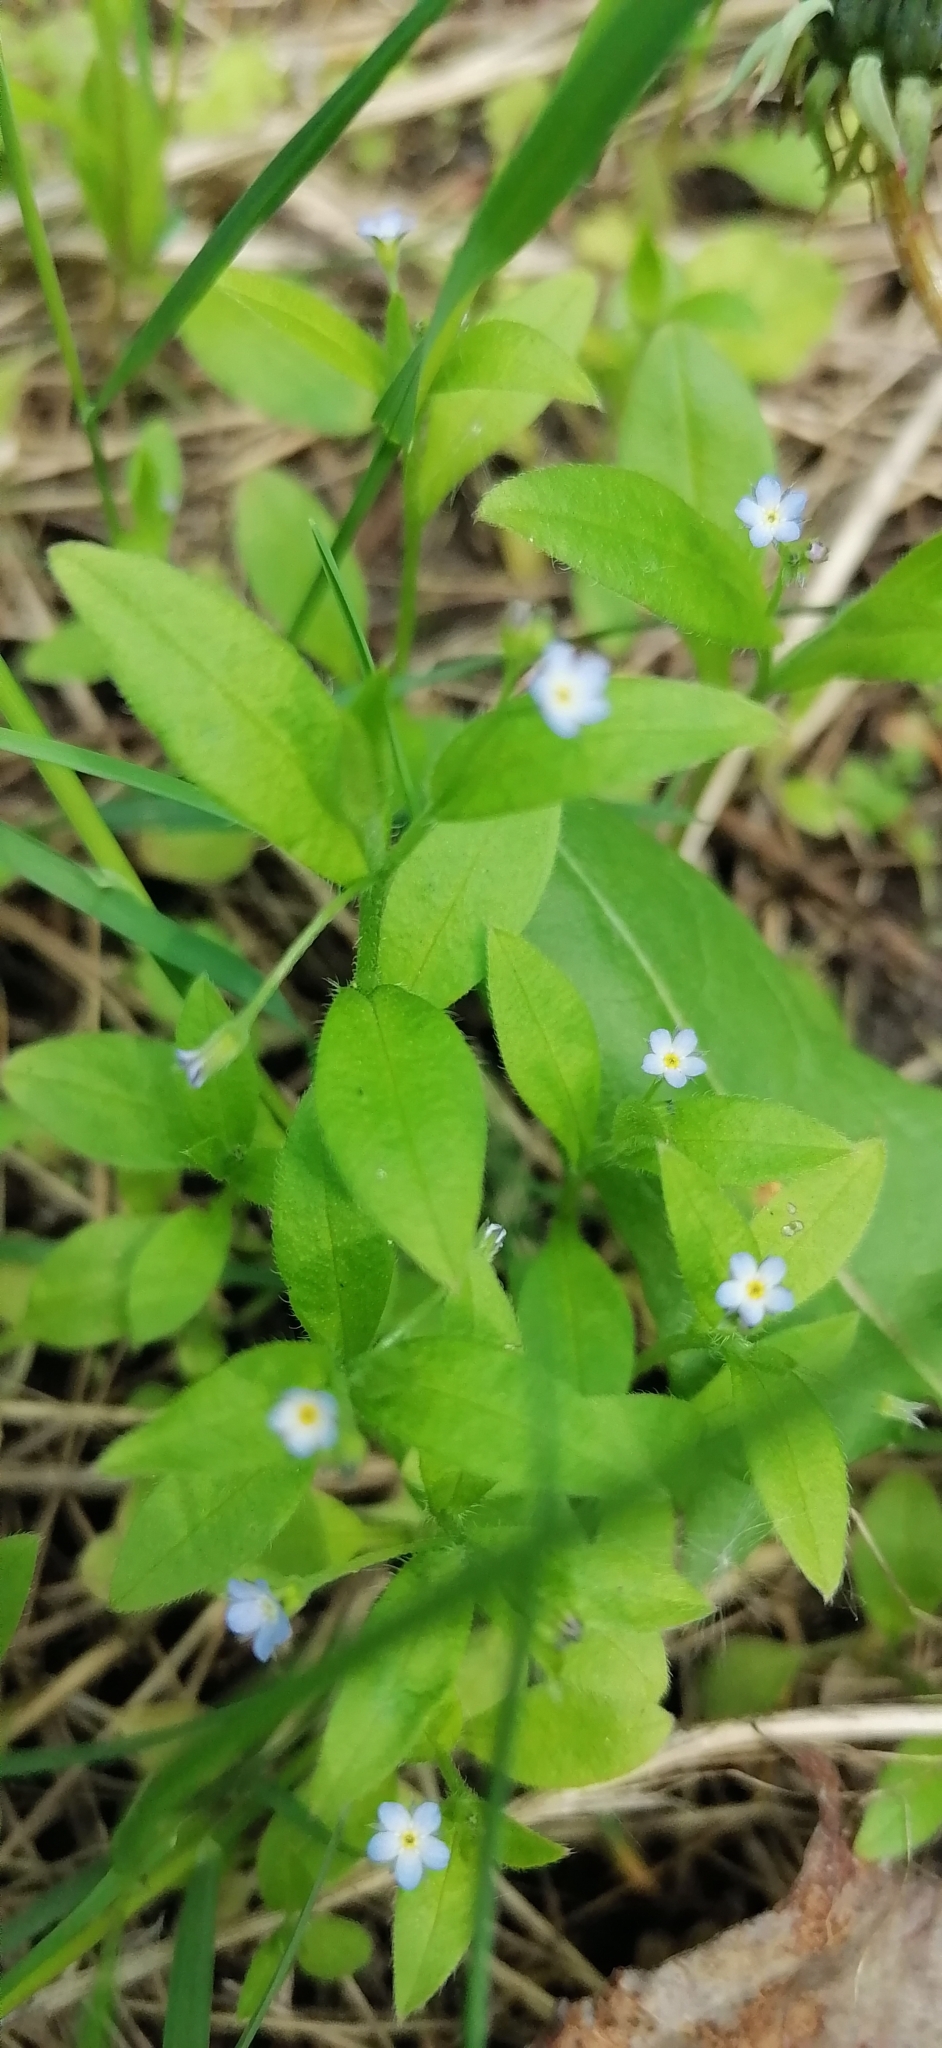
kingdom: Plantae
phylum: Tracheophyta
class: Magnoliopsida
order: Boraginales
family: Boraginaceae
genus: Myosotis
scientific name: Myosotis sparsiflora
